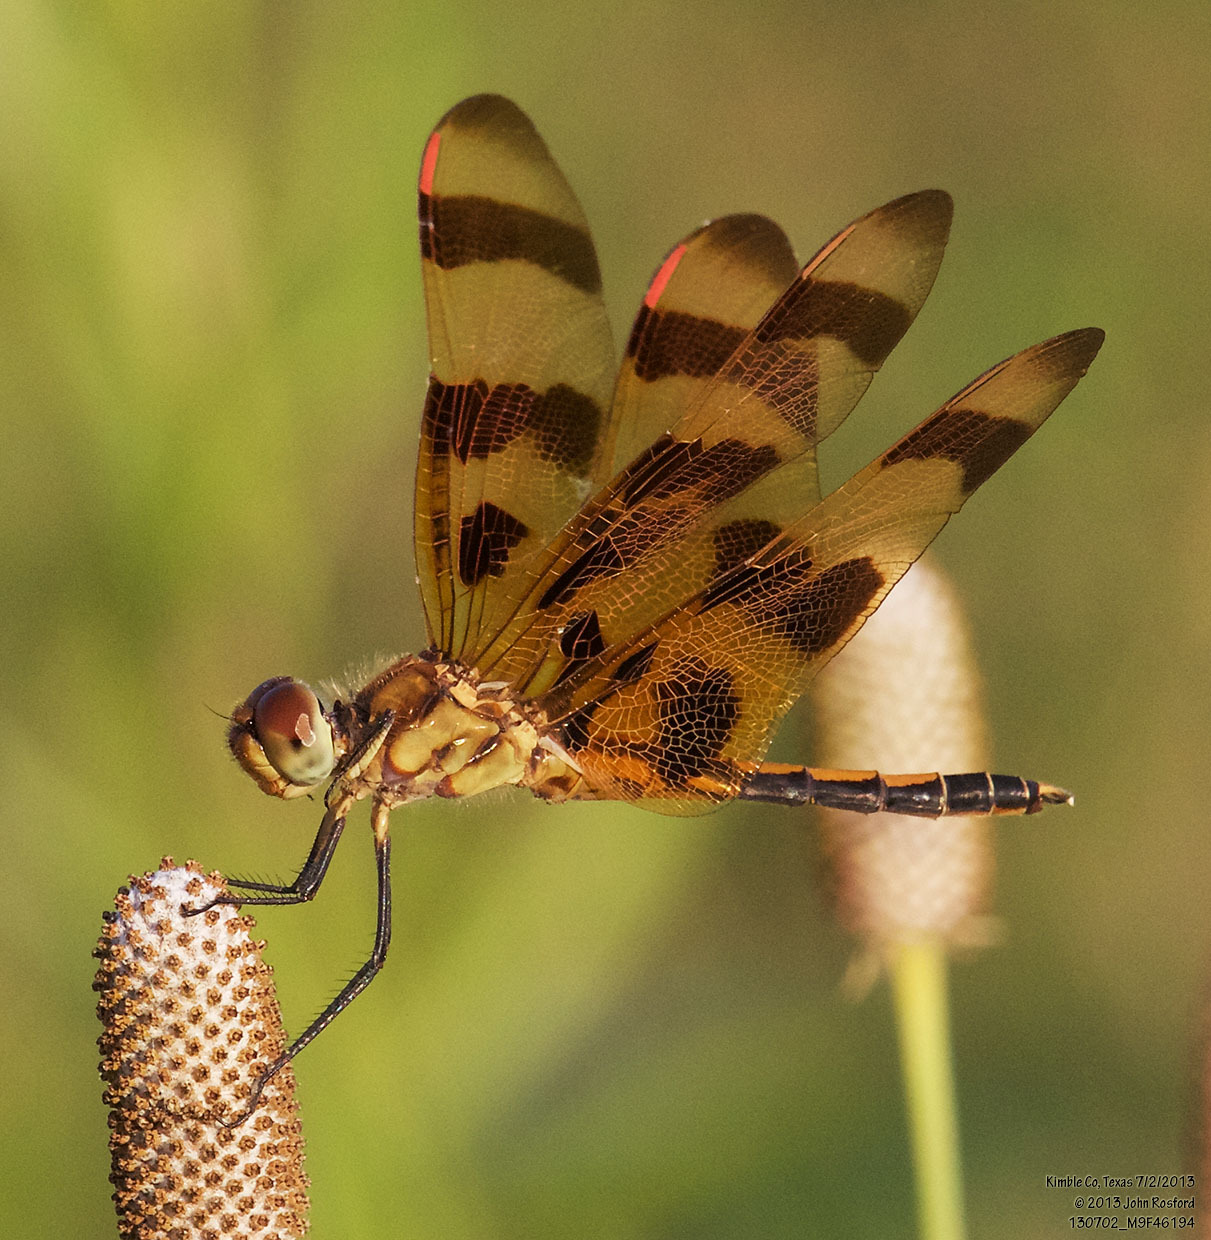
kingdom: Animalia
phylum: Arthropoda
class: Insecta
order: Odonata
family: Libellulidae
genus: Celithemis
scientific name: Celithemis eponina
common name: Halloween pennant
